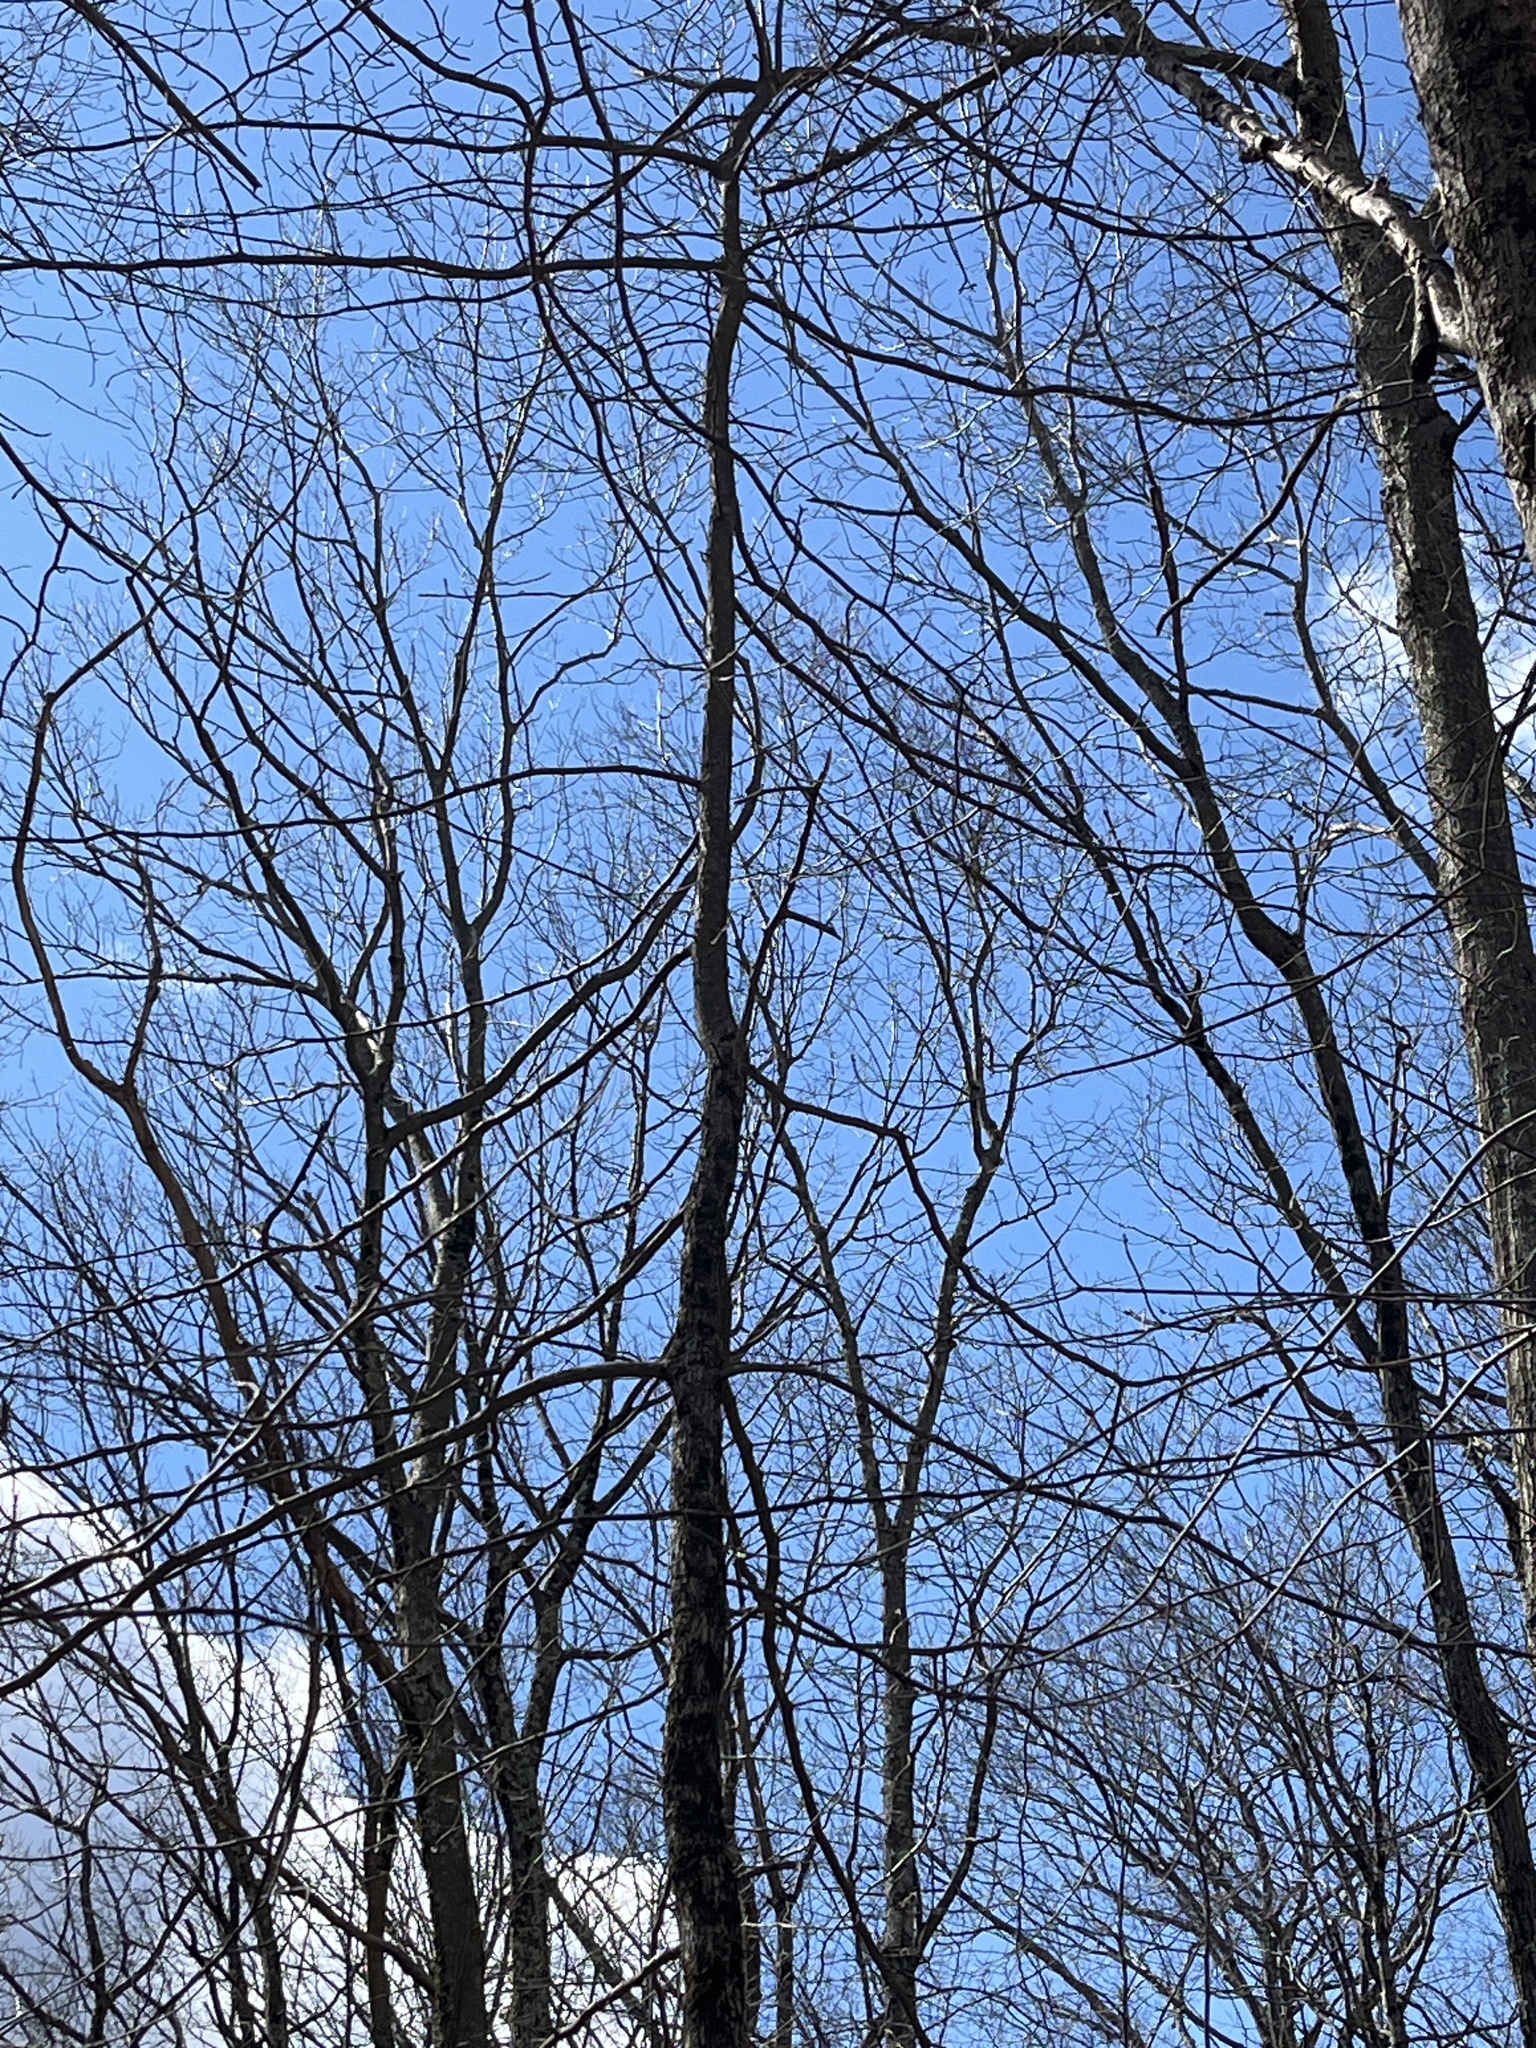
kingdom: Plantae
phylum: Tracheophyta
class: Magnoliopsida
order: Cornales
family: Nyssaceae
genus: Nyssa
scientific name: Nyssa sylvatica
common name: Black tupelo
